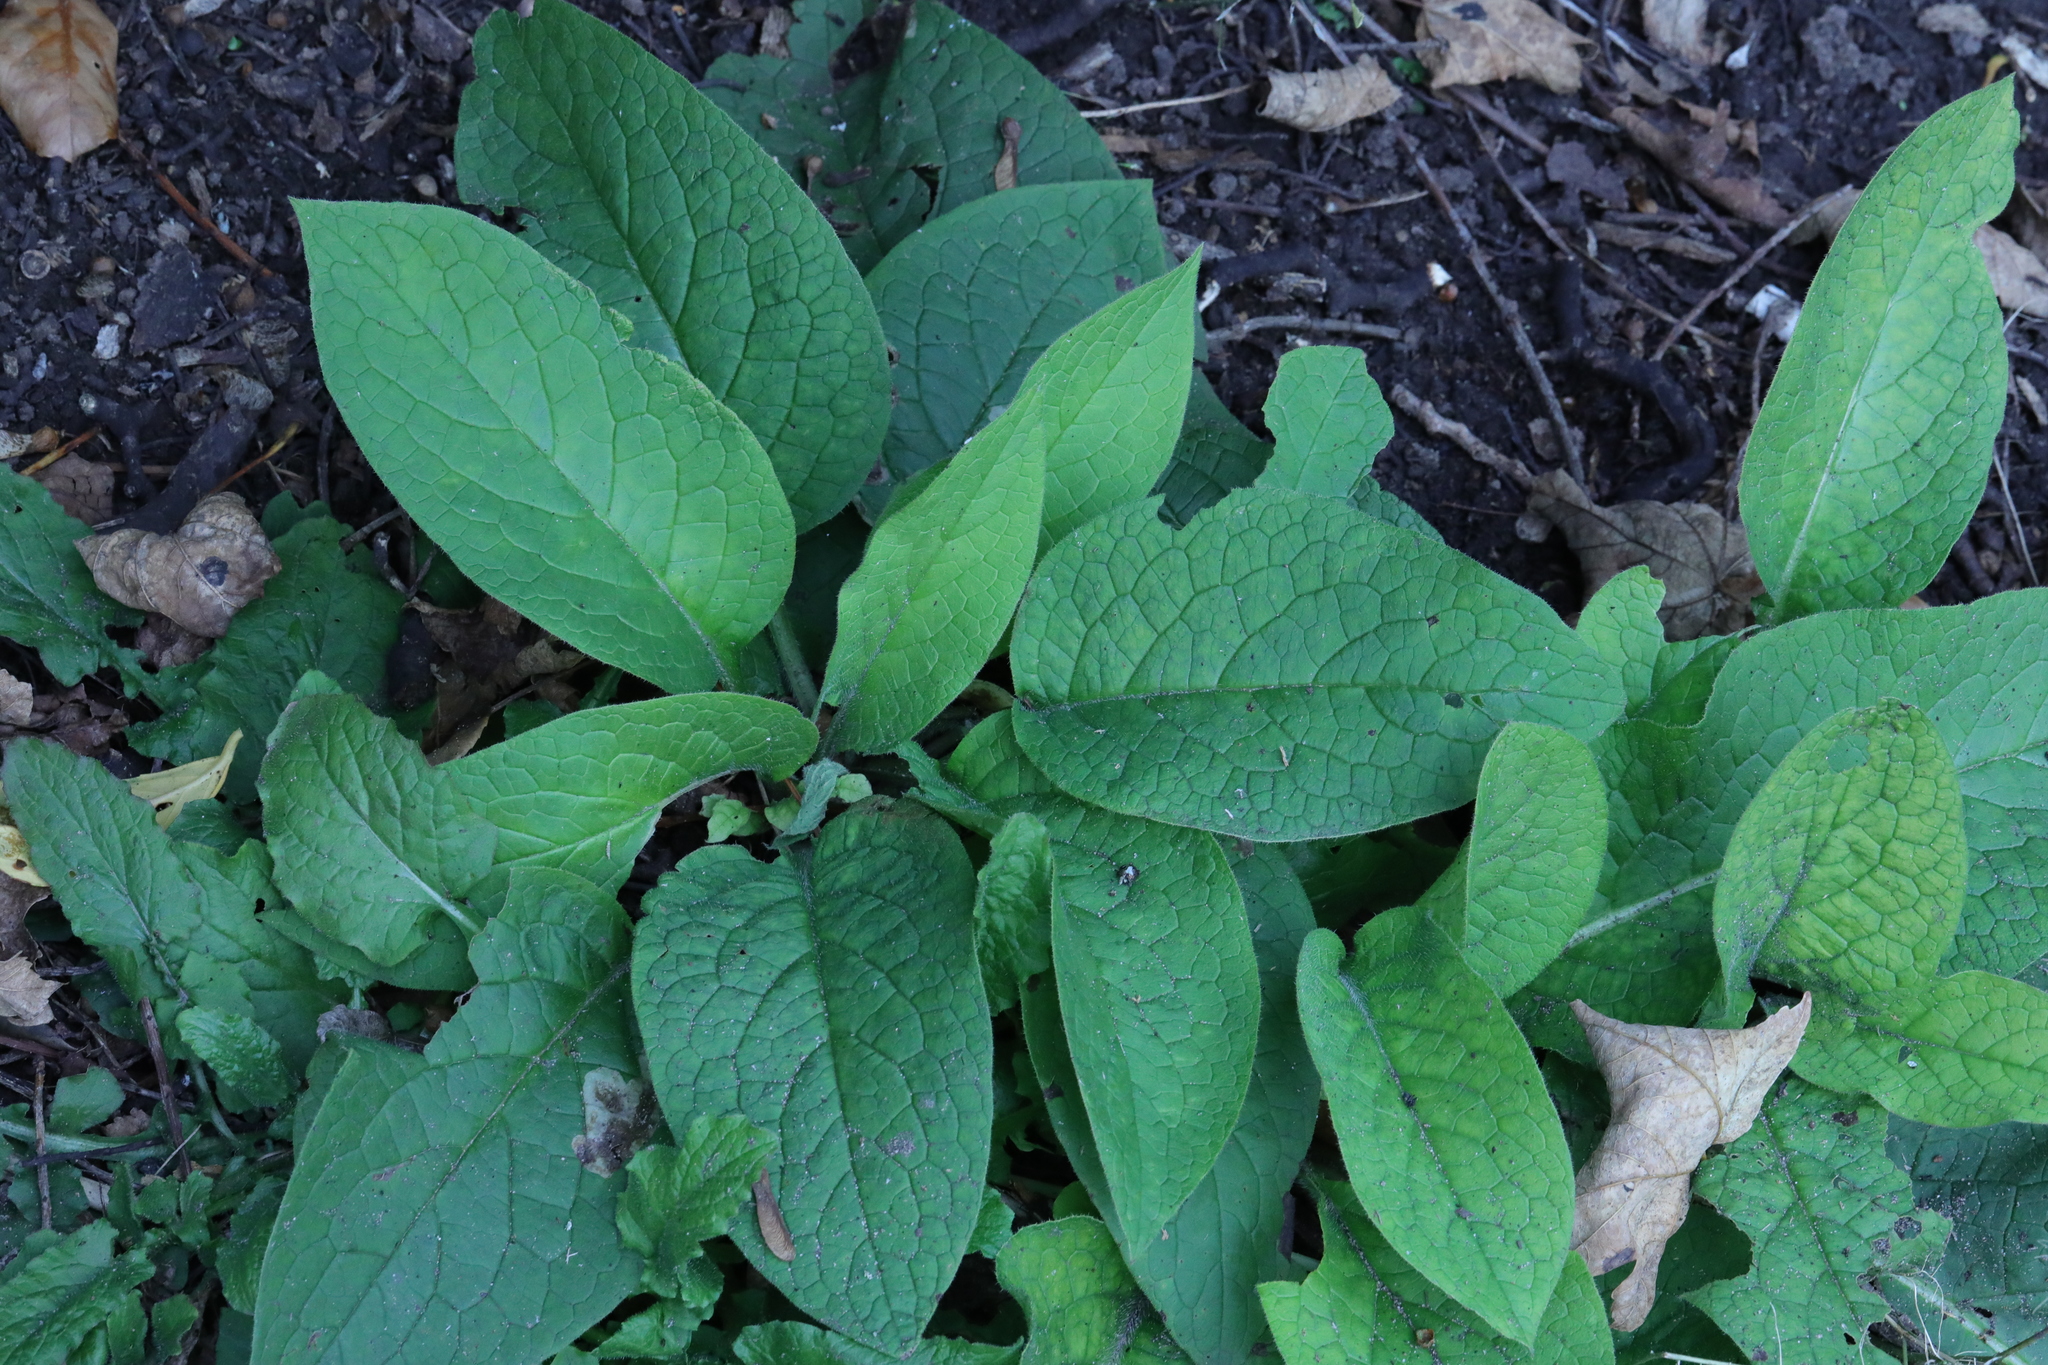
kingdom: Plantae
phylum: Tracheophyta
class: Magnoliopsida
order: Boraginales
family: Boraginaceae
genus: Pentaglottis
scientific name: Pentaglottis sempervirens
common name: Green alkanet
